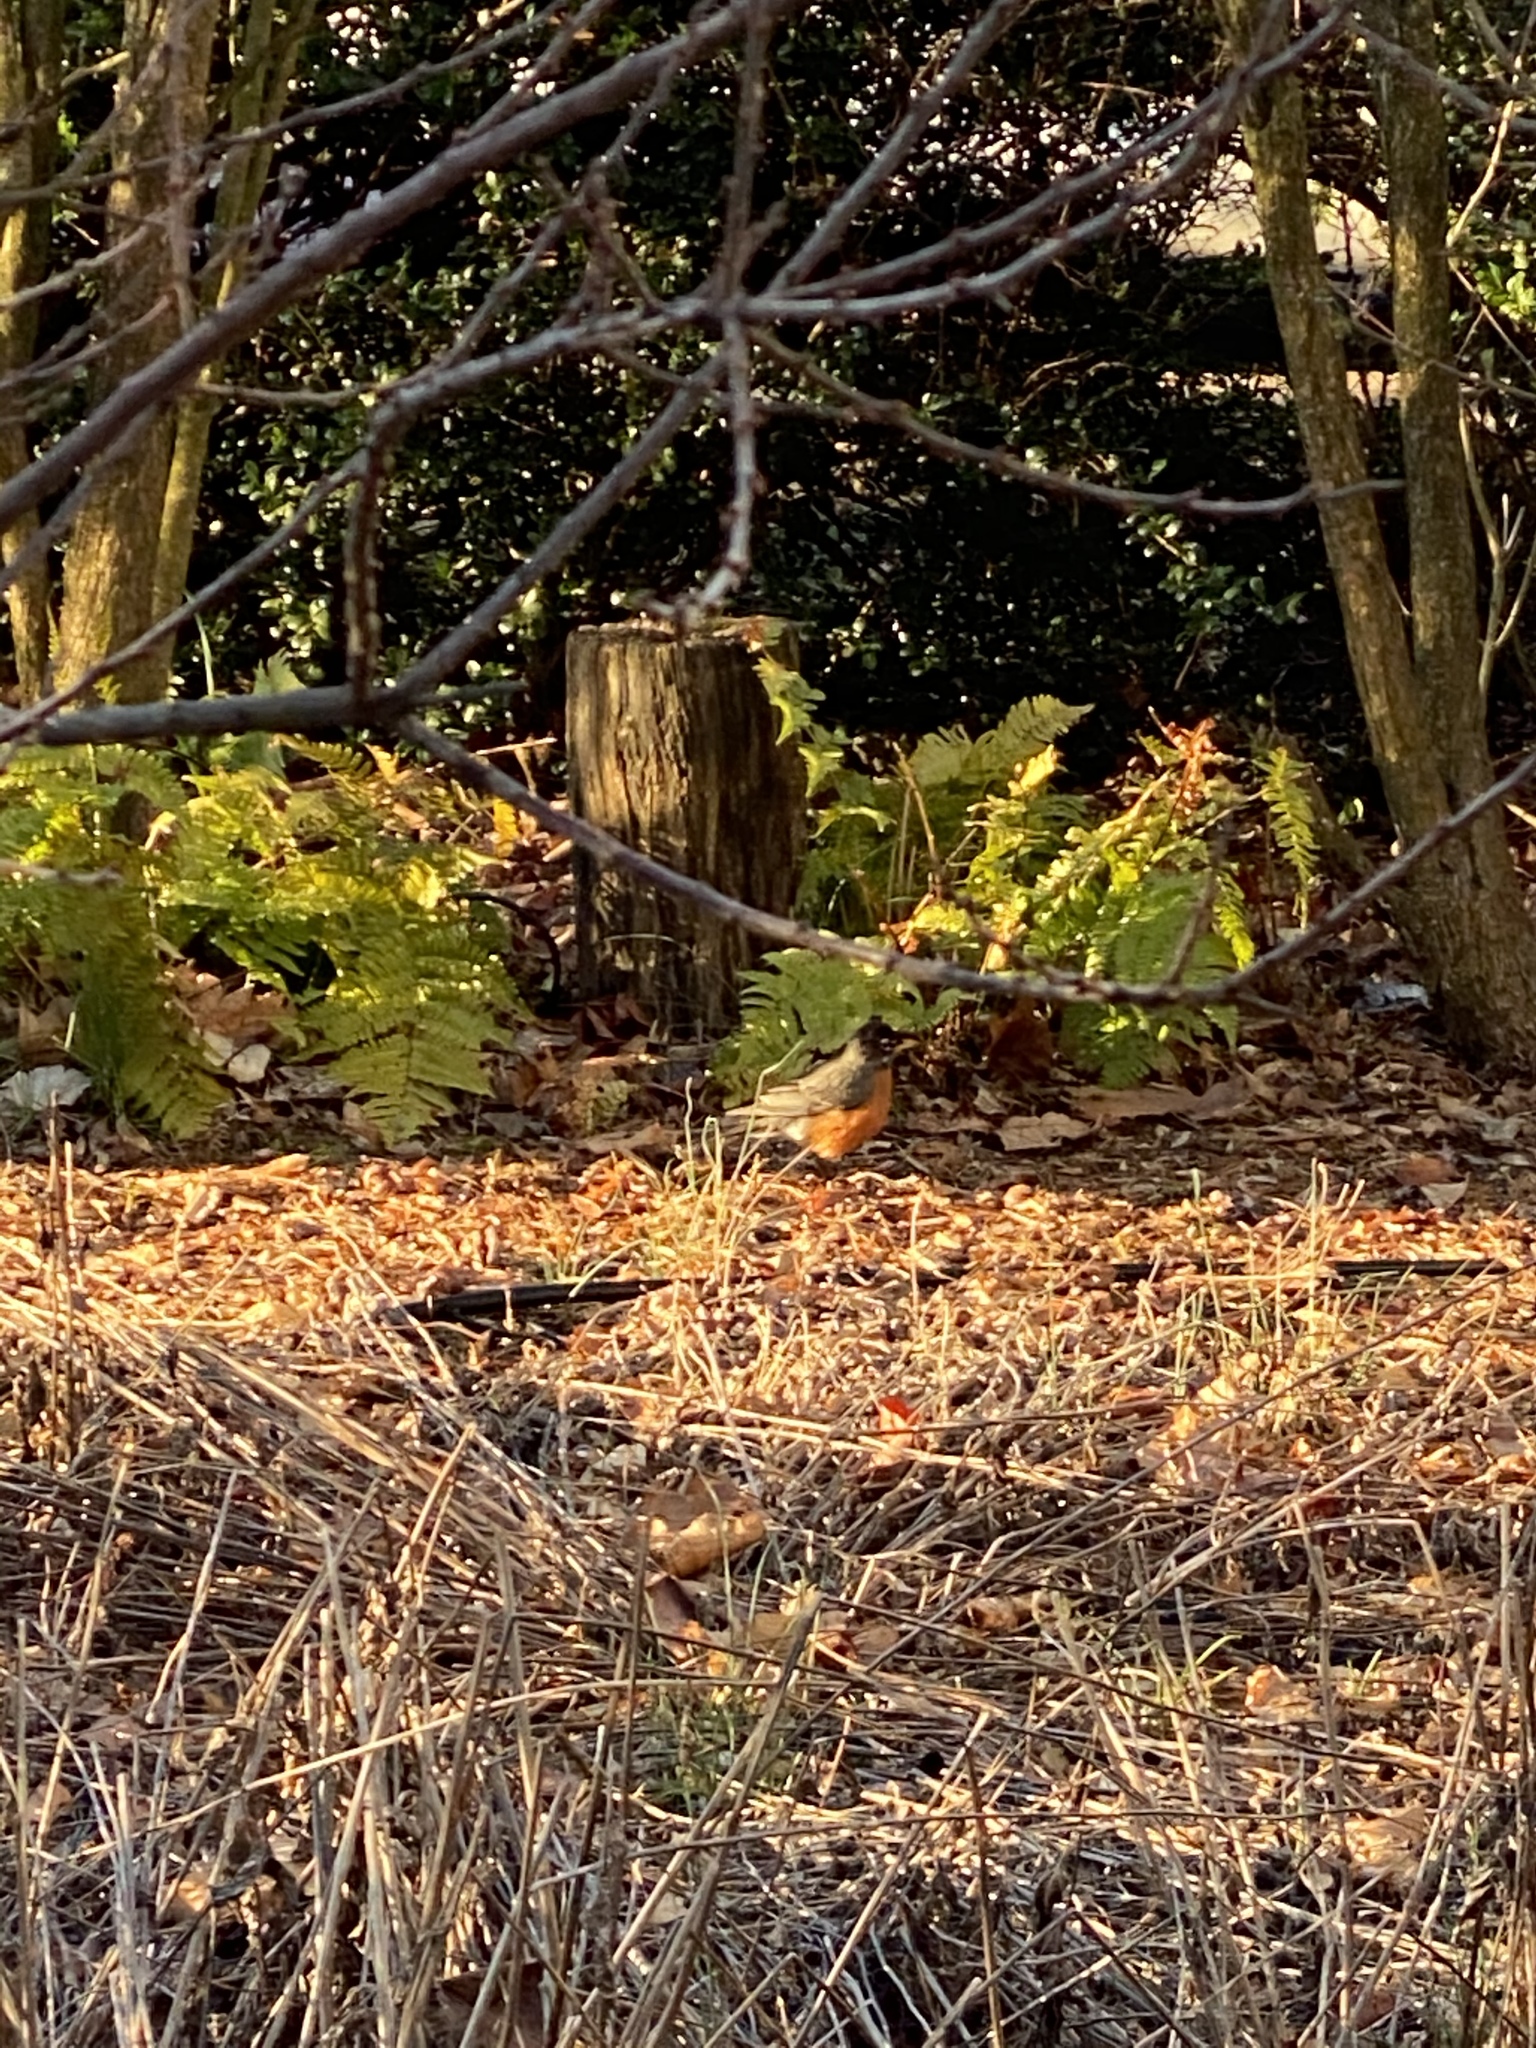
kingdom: Animalia
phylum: Chordata
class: Aves
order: Passeriformes
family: Turdidae
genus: Turdus
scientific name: Turdus migratorius
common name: American robin
